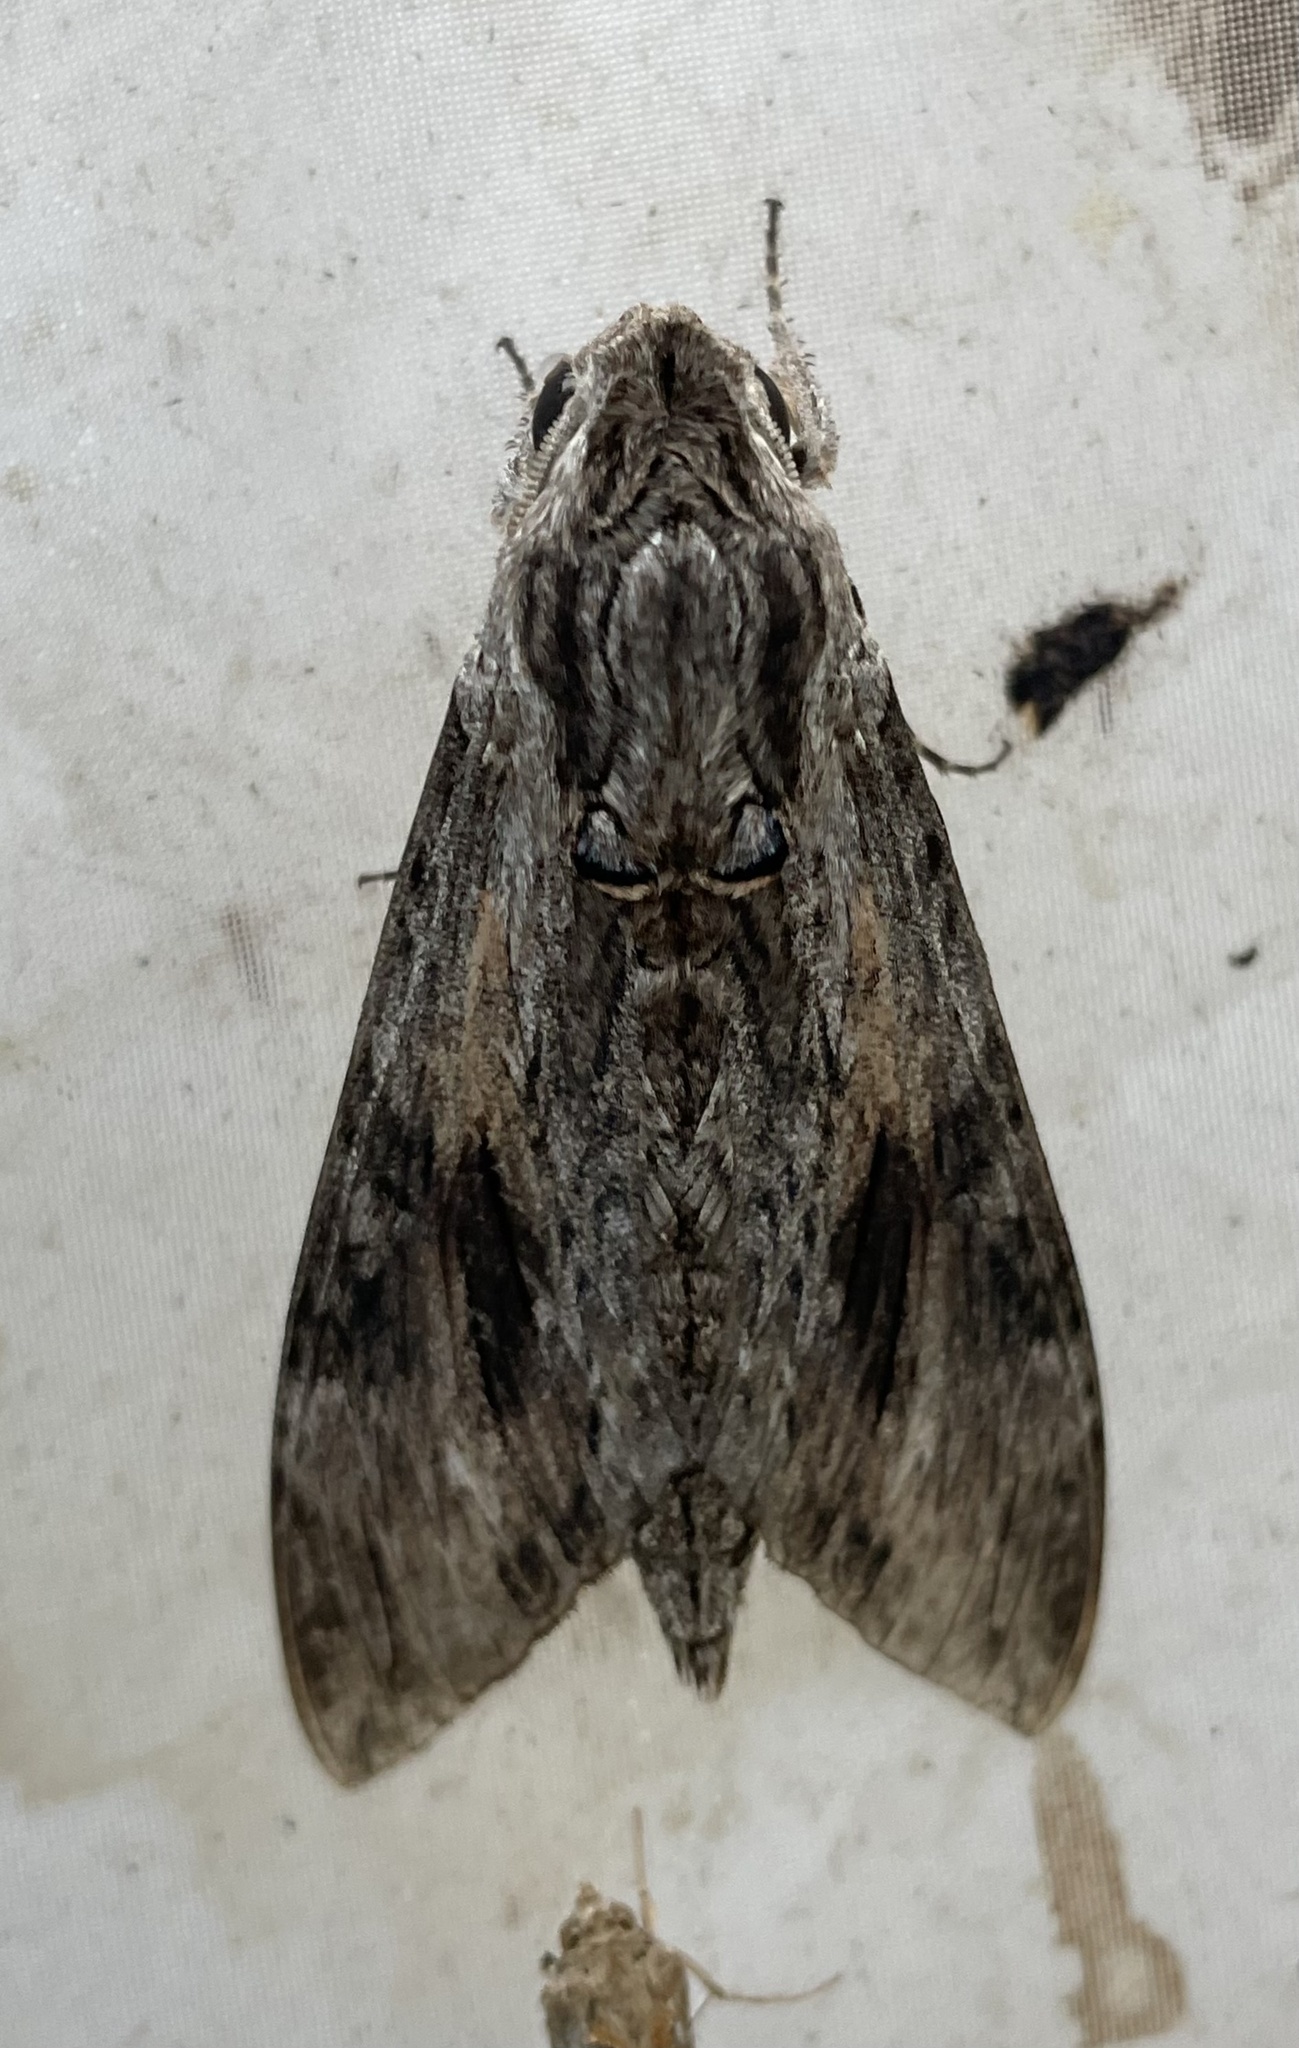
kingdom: Animalia
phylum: Arthropoda
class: Insecta
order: Lepidoptera
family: Sphingidae
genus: Agrius
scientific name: Agrius convolvuli
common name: Convolvulus hawkmoth
